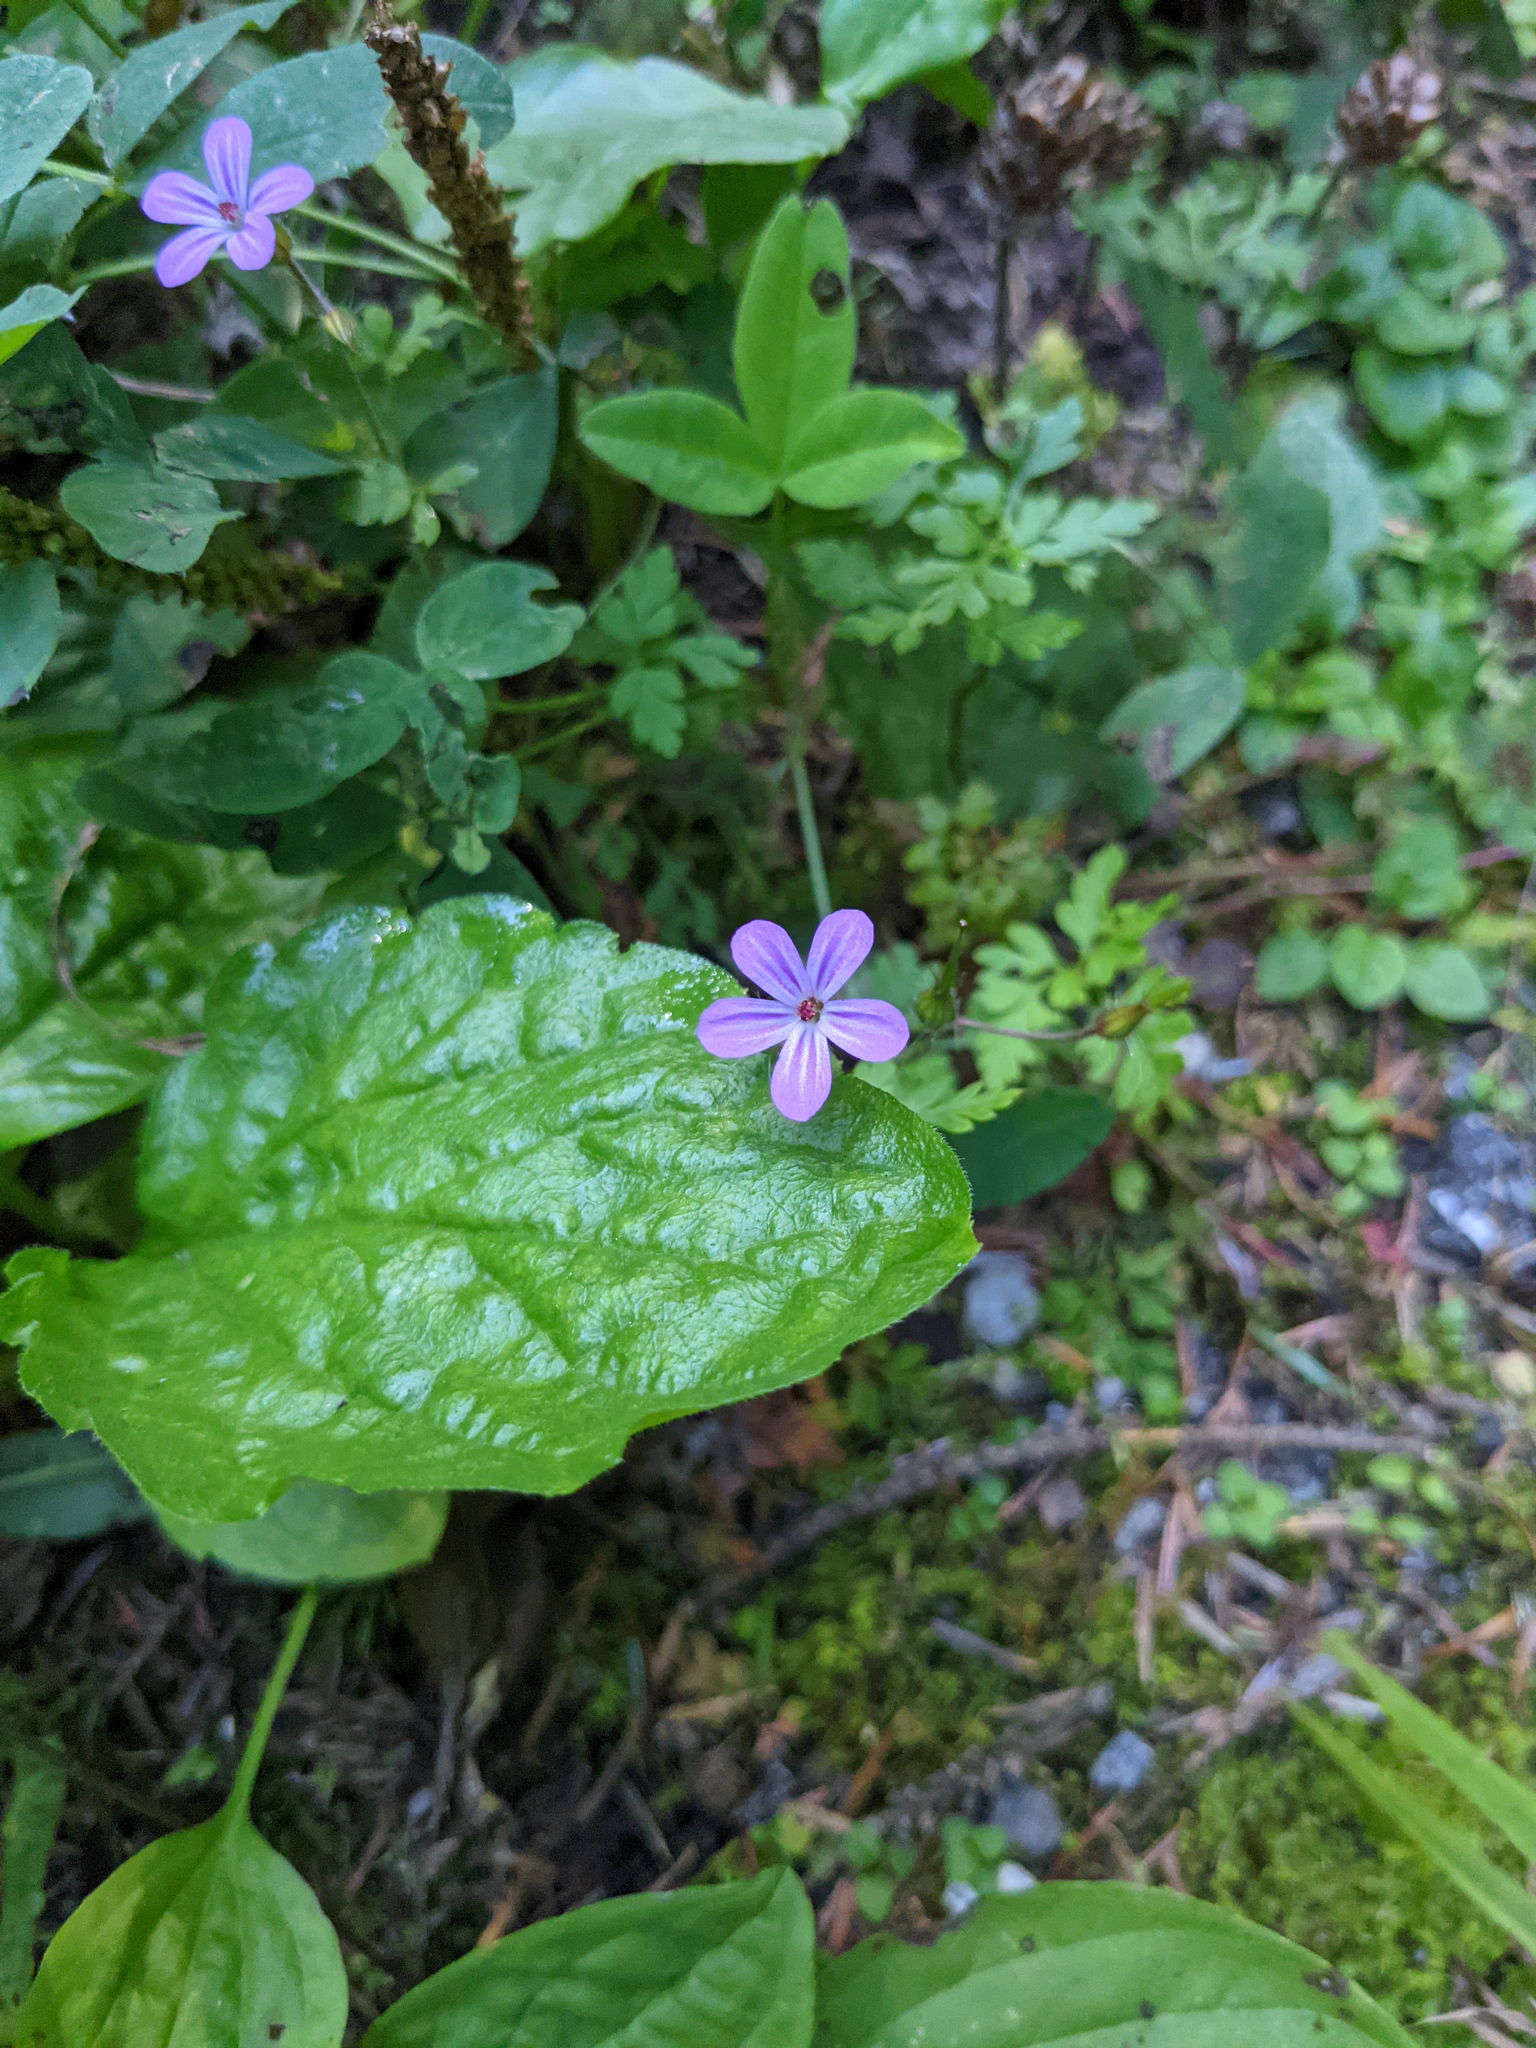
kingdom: Plantae
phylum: Tracheophyta
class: Magnoliopsida
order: Geraniales
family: Geraniaceae
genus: Geranium
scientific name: Geranium robertianum
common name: Herb-robert
